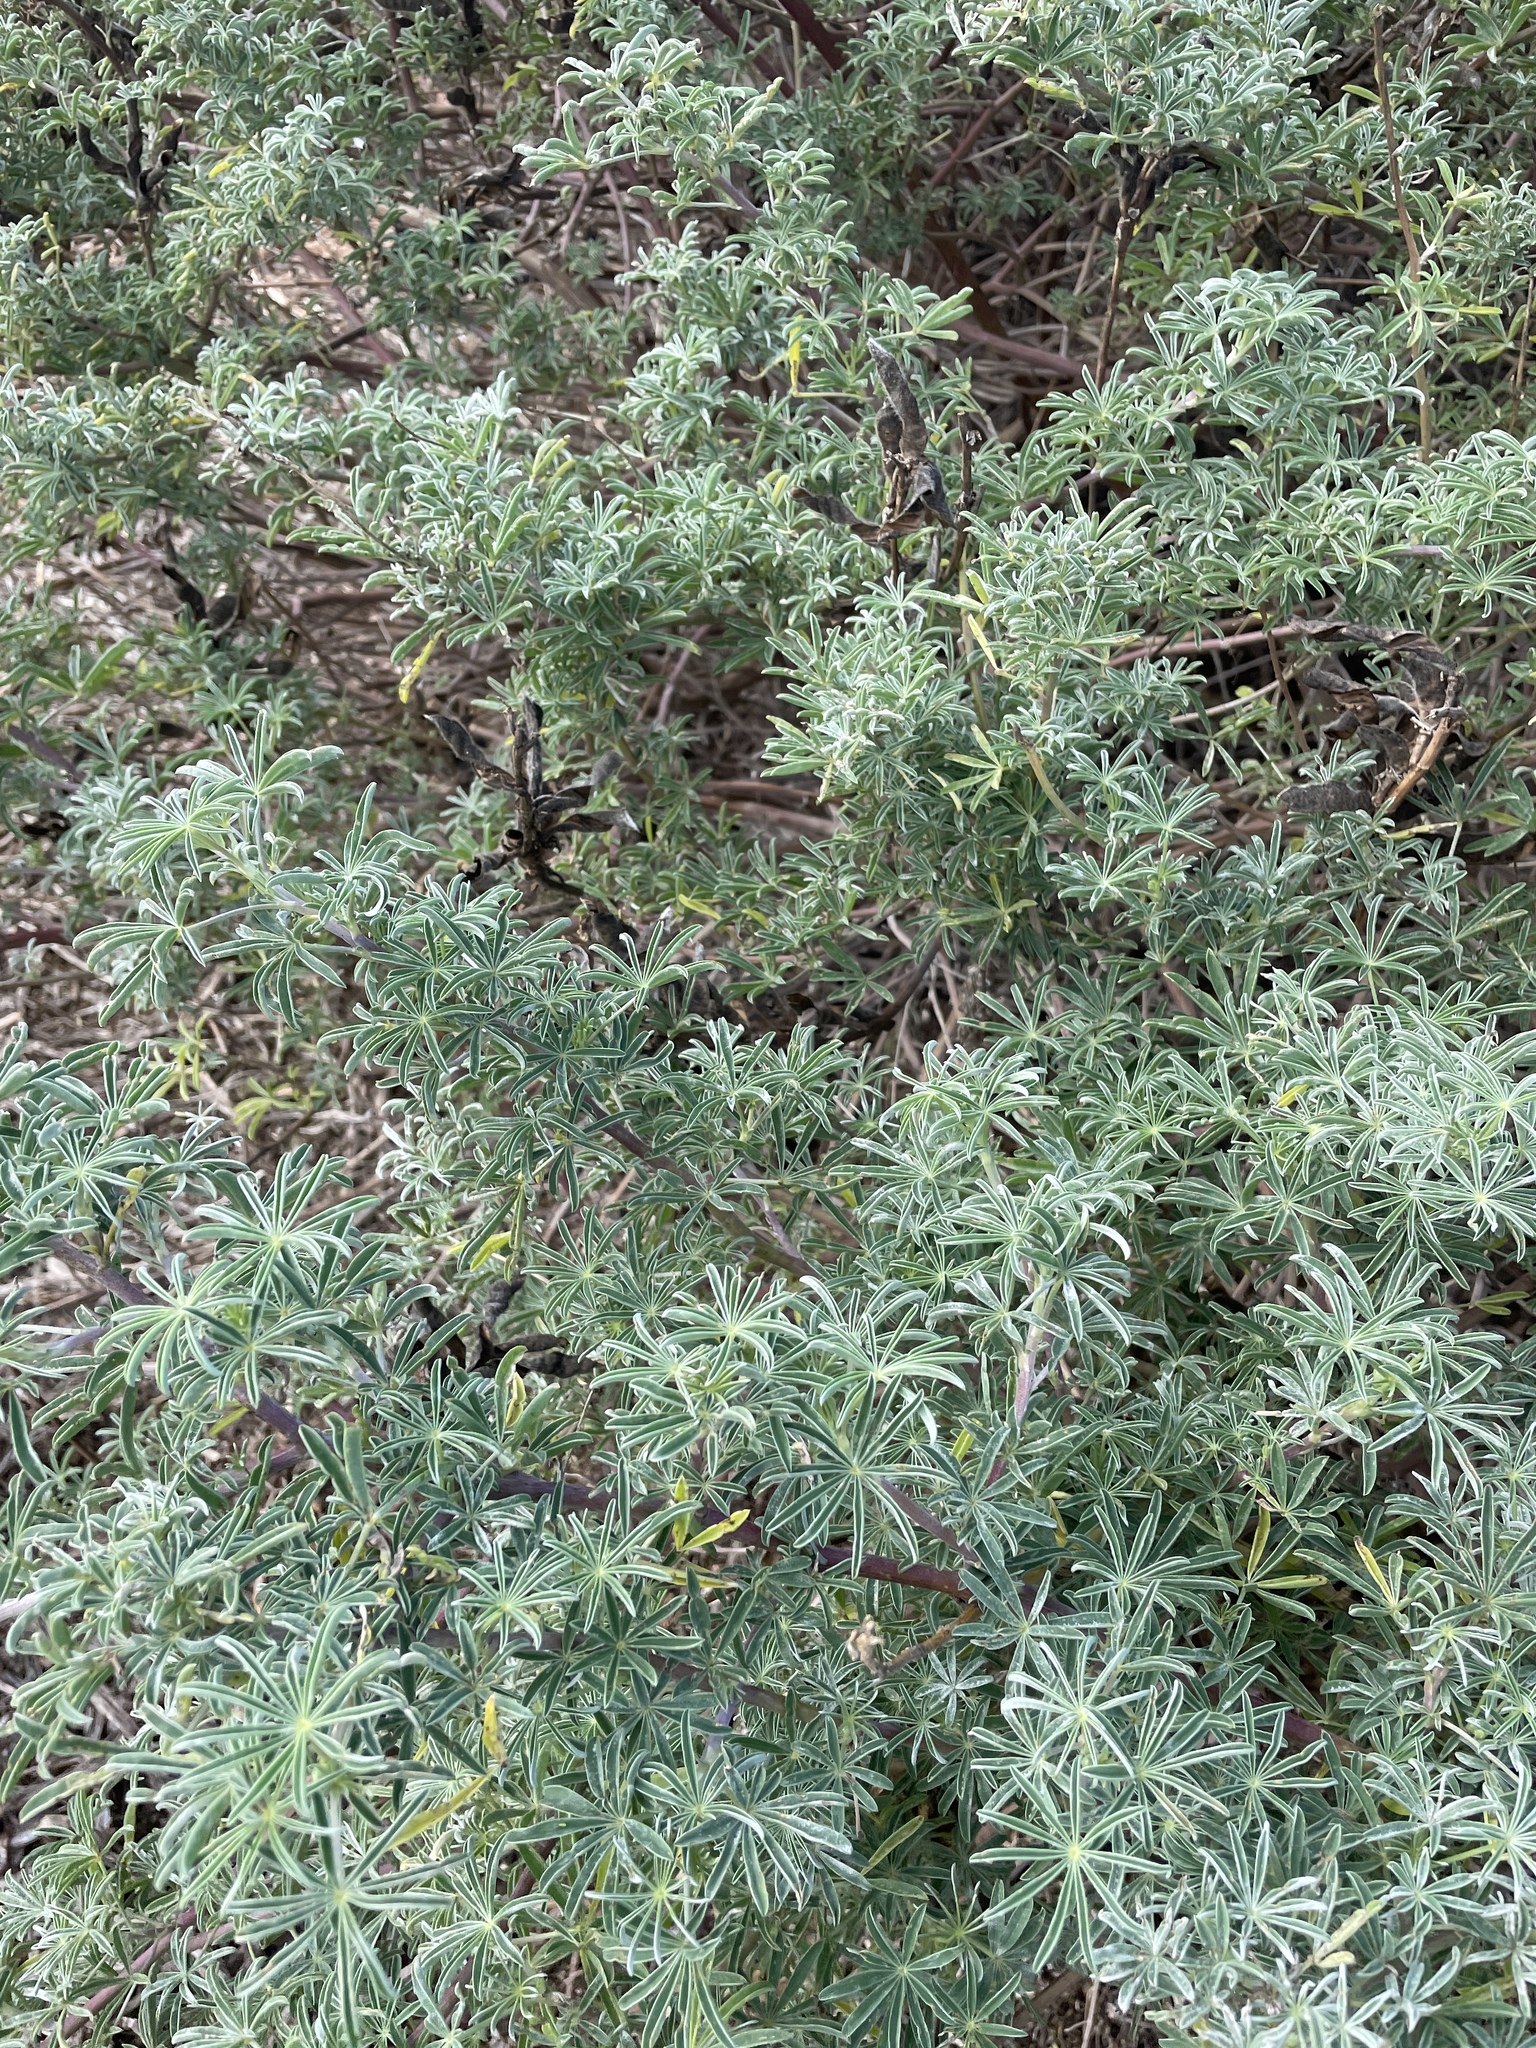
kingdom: Plantae
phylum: Tracheophyta
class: Magnoliopsida
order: Fabales
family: Fabaceae
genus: Lupinus
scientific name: Lupinus arboreus
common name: Yellow bush lupine
